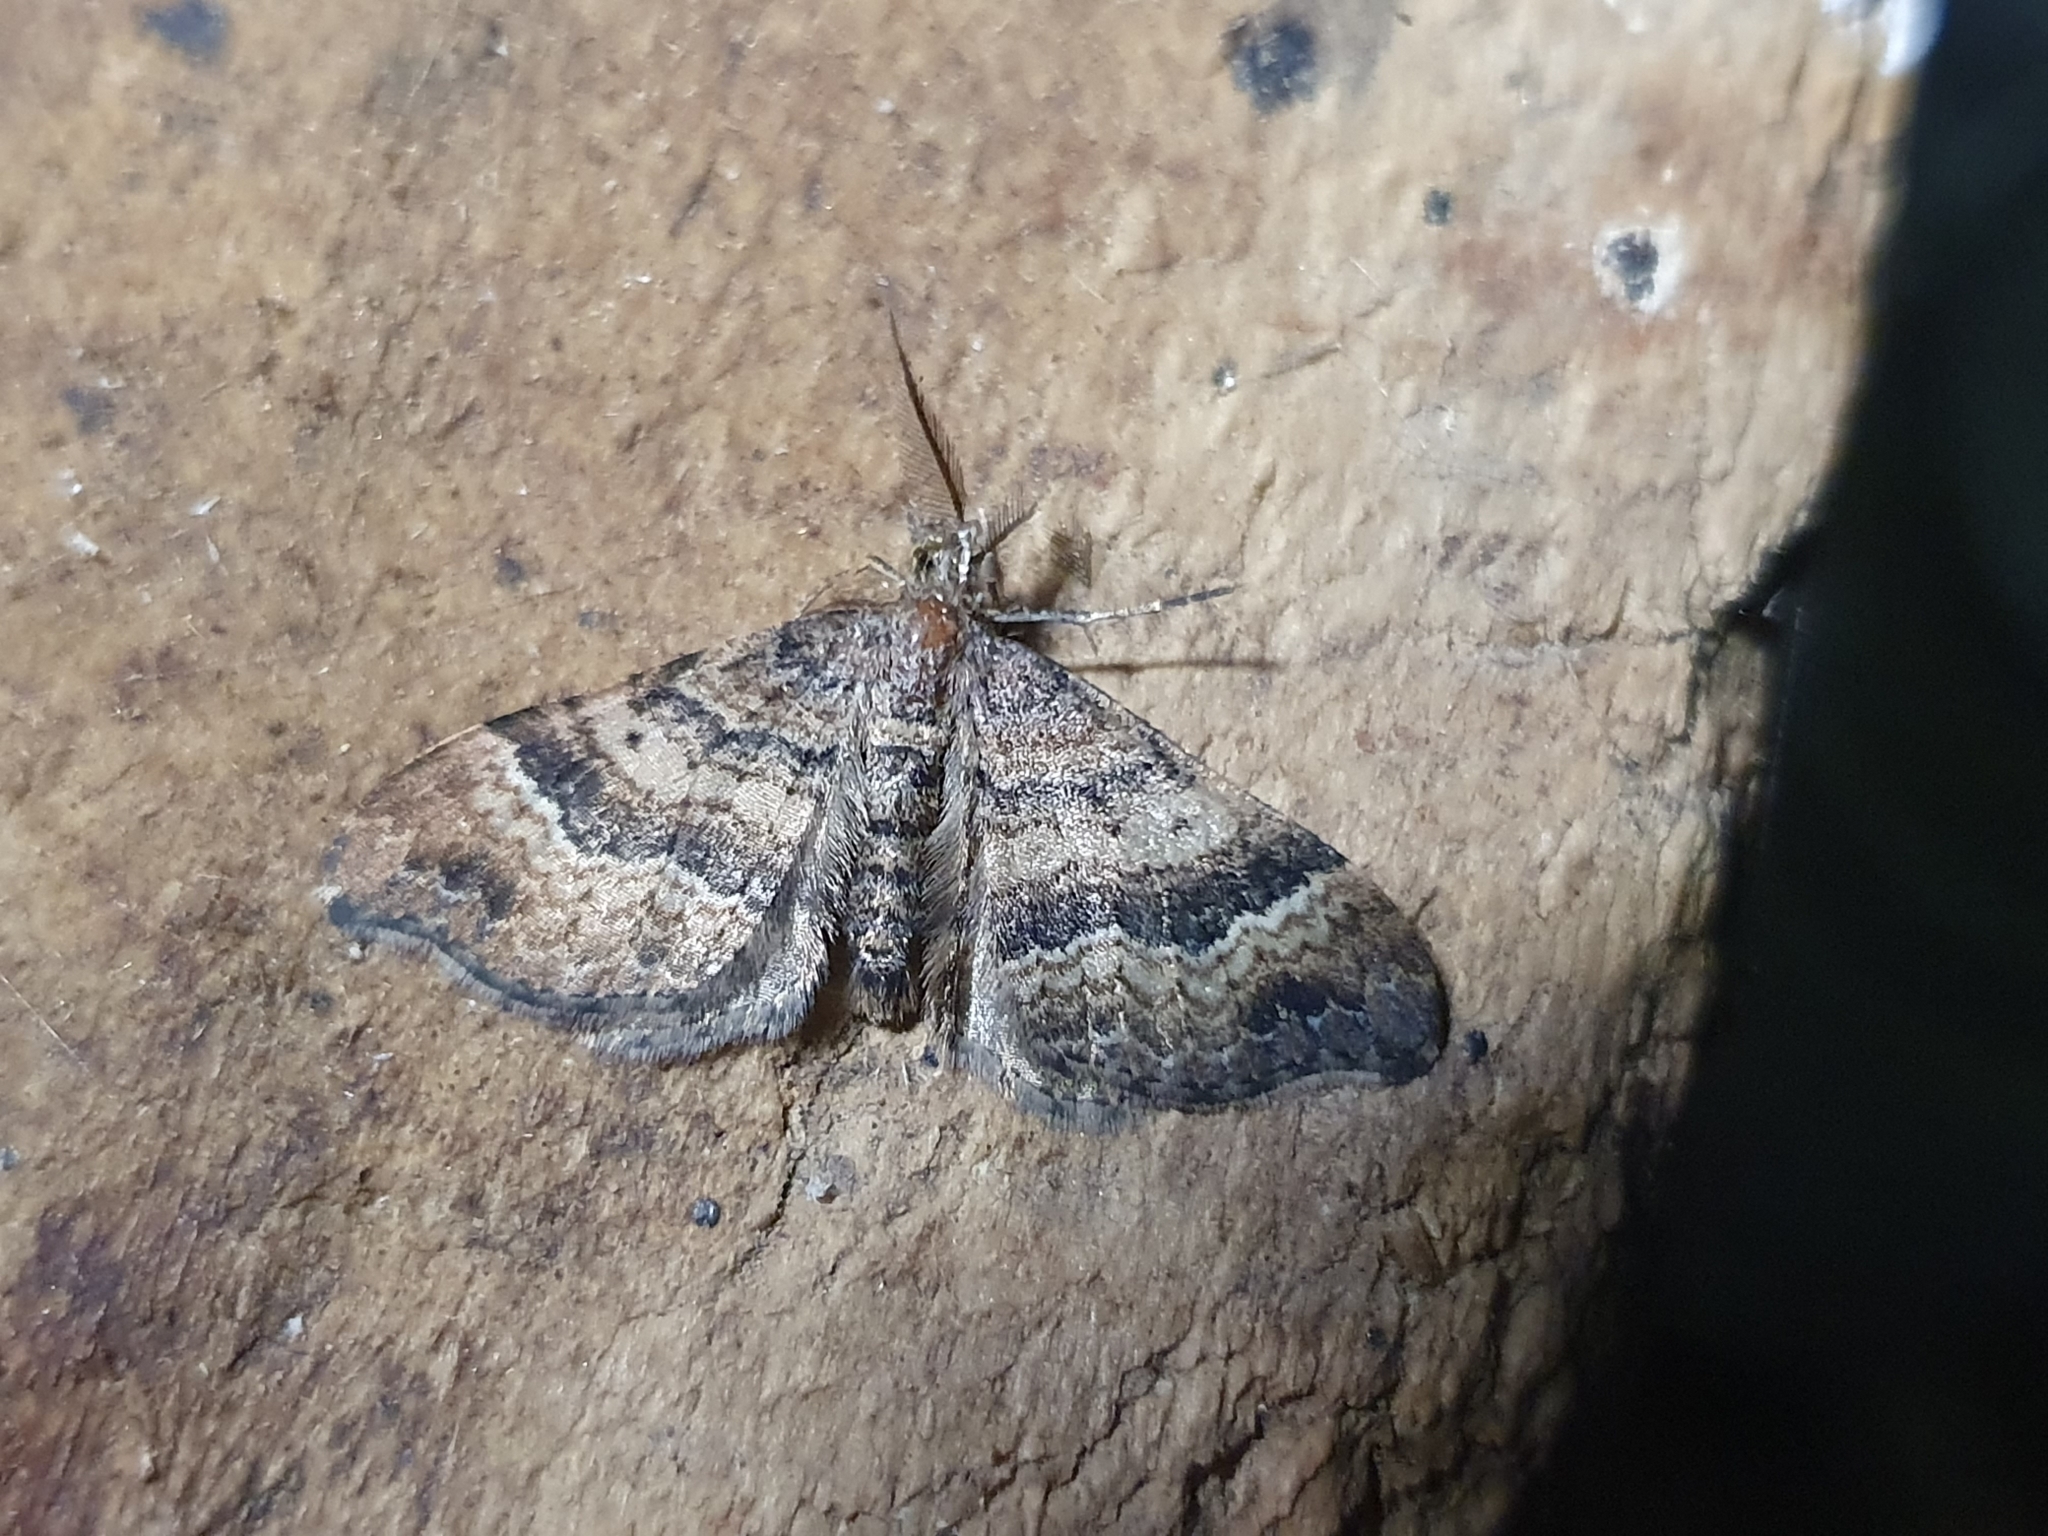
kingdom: Animalia
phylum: Arthropoda
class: Insecta
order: Lepidoptera
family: Geometridae
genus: Homodotis
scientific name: Homodotis megaspilata
